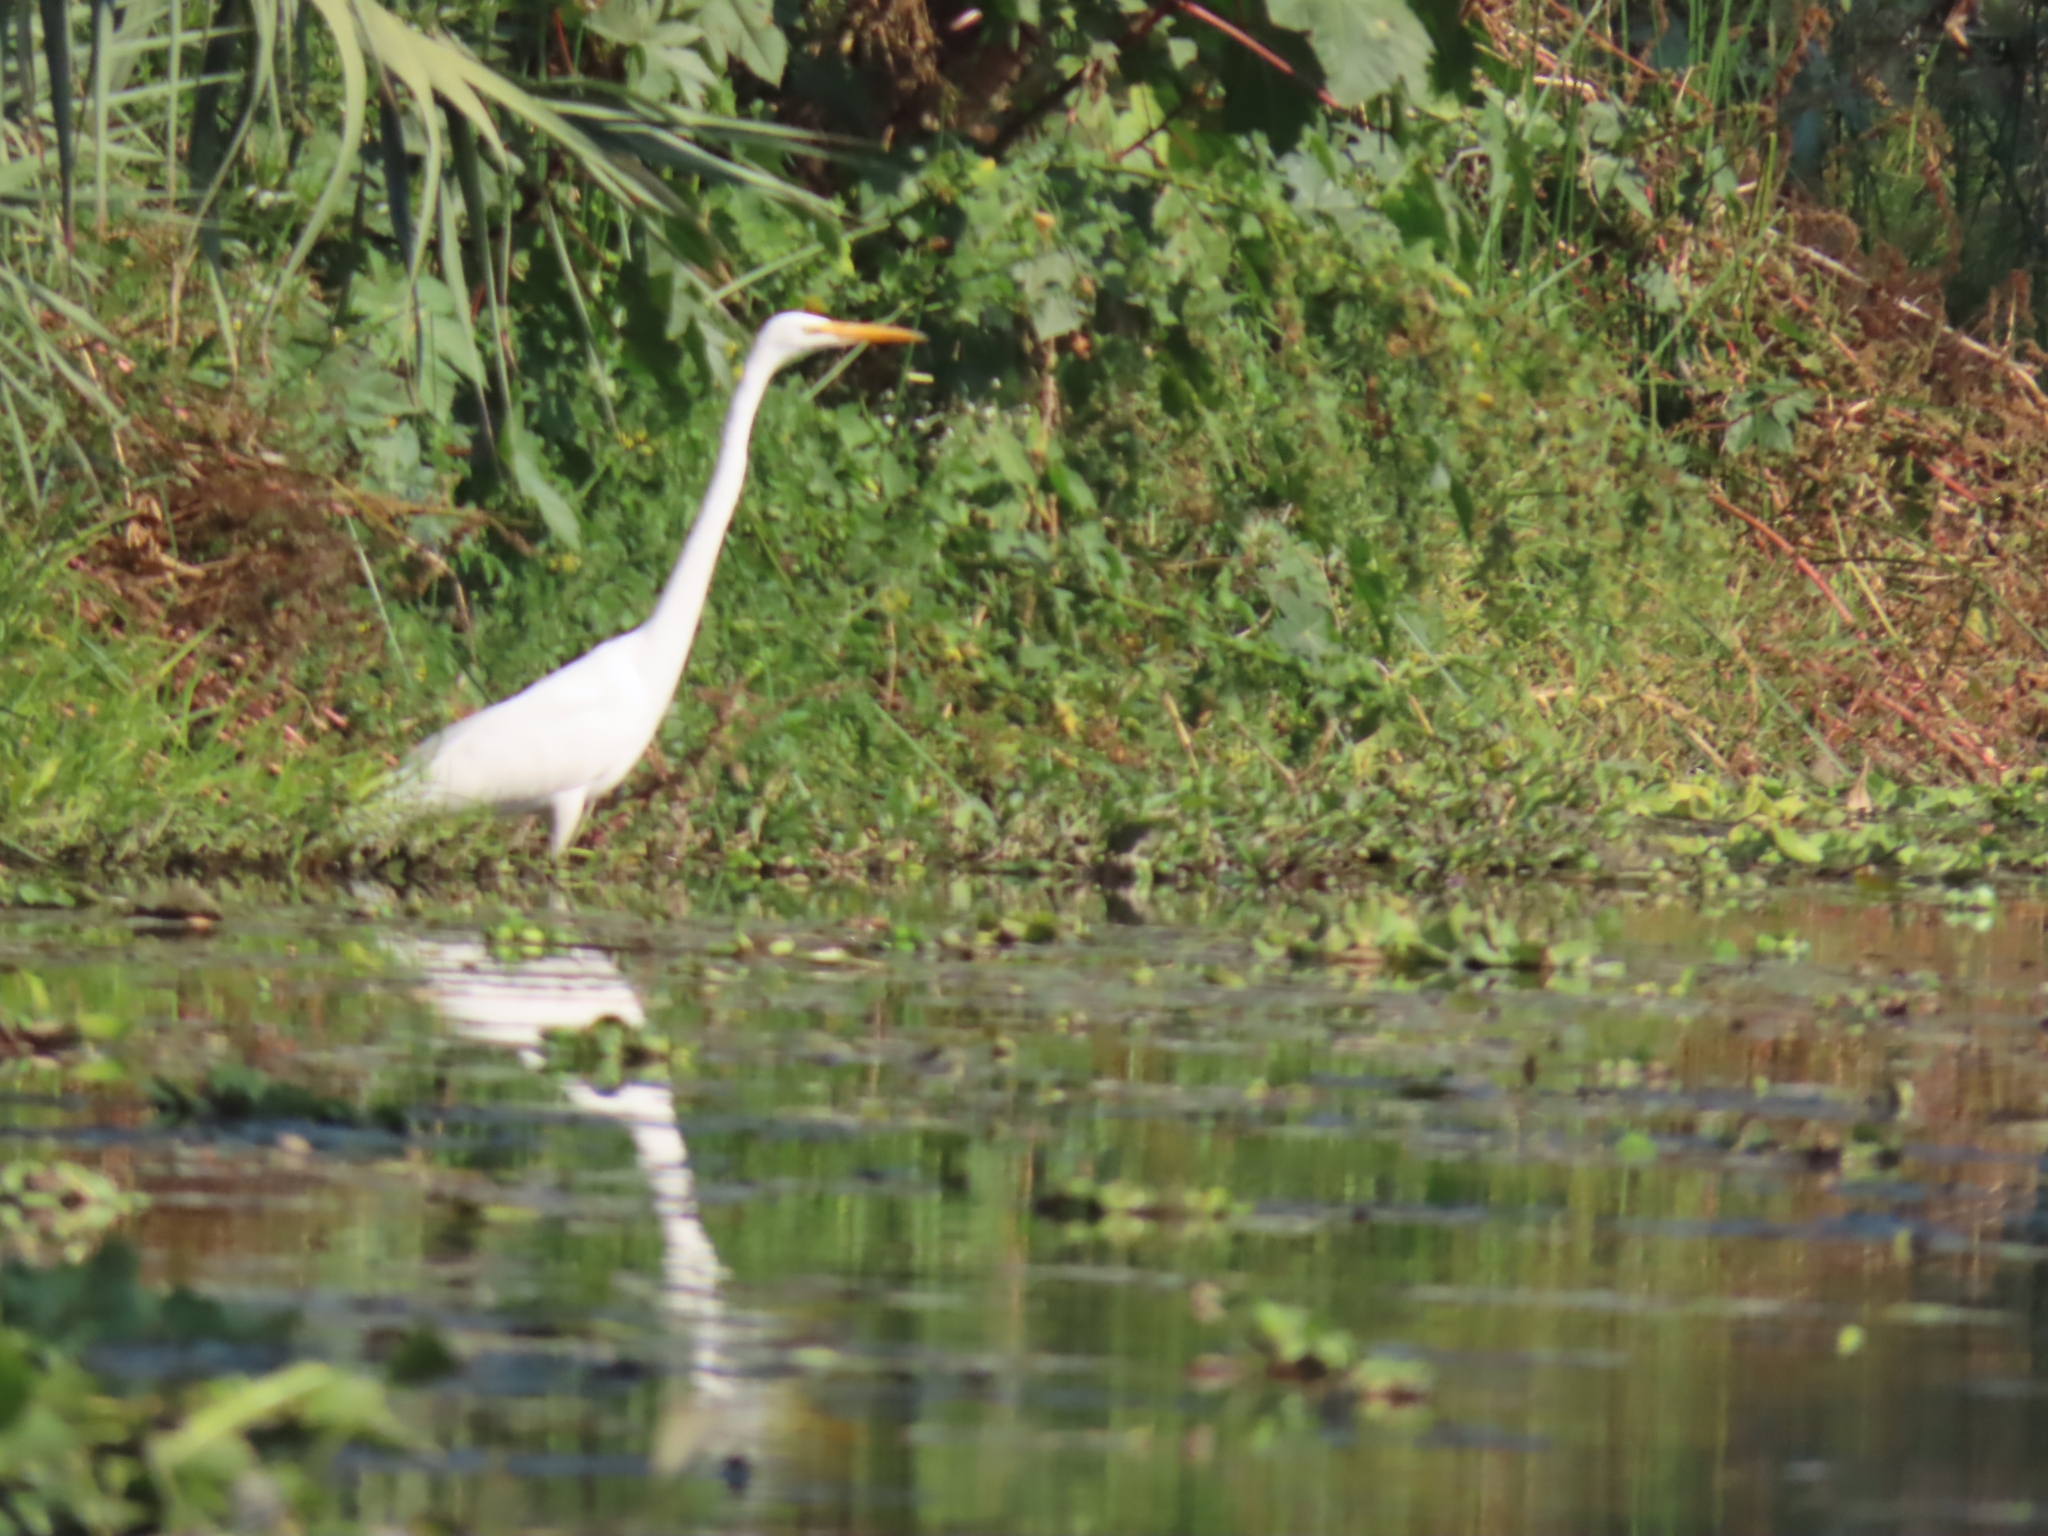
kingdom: Animalia
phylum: Chordata
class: Aves
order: Pelecaniformes
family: Ardeidae
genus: Ardea
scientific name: Ardea alba
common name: Great egret
